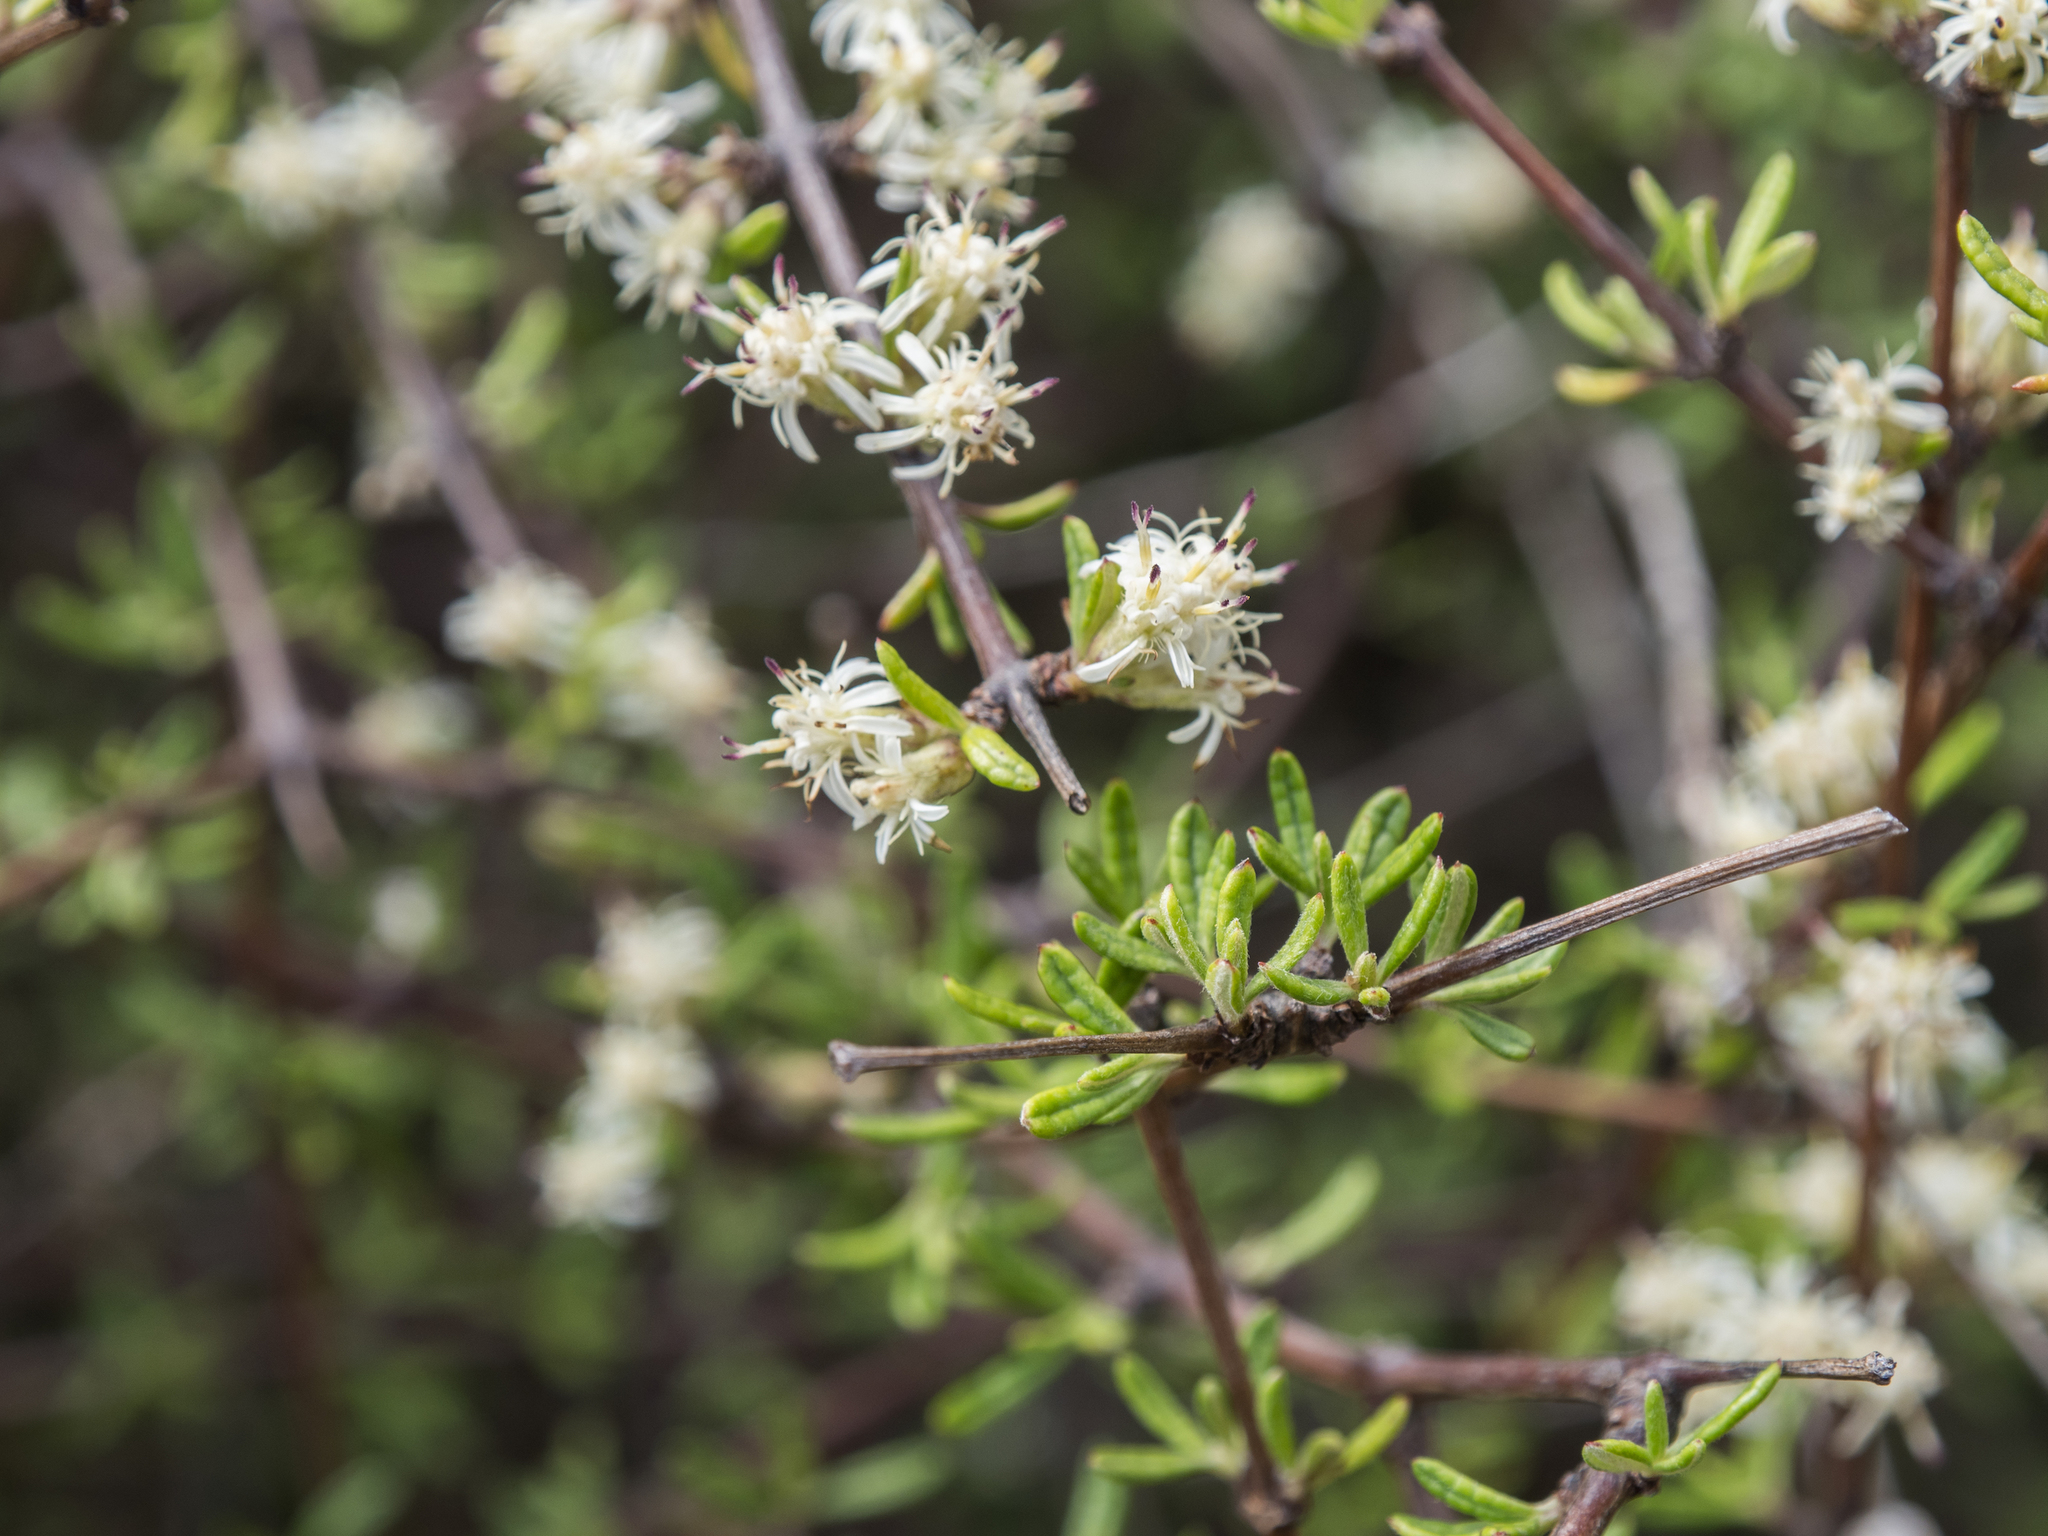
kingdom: Plantae
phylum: Tracheophyta
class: Magnoliopsida
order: Asterales
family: Asteraceae
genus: Olearia
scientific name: Olearia bullata
